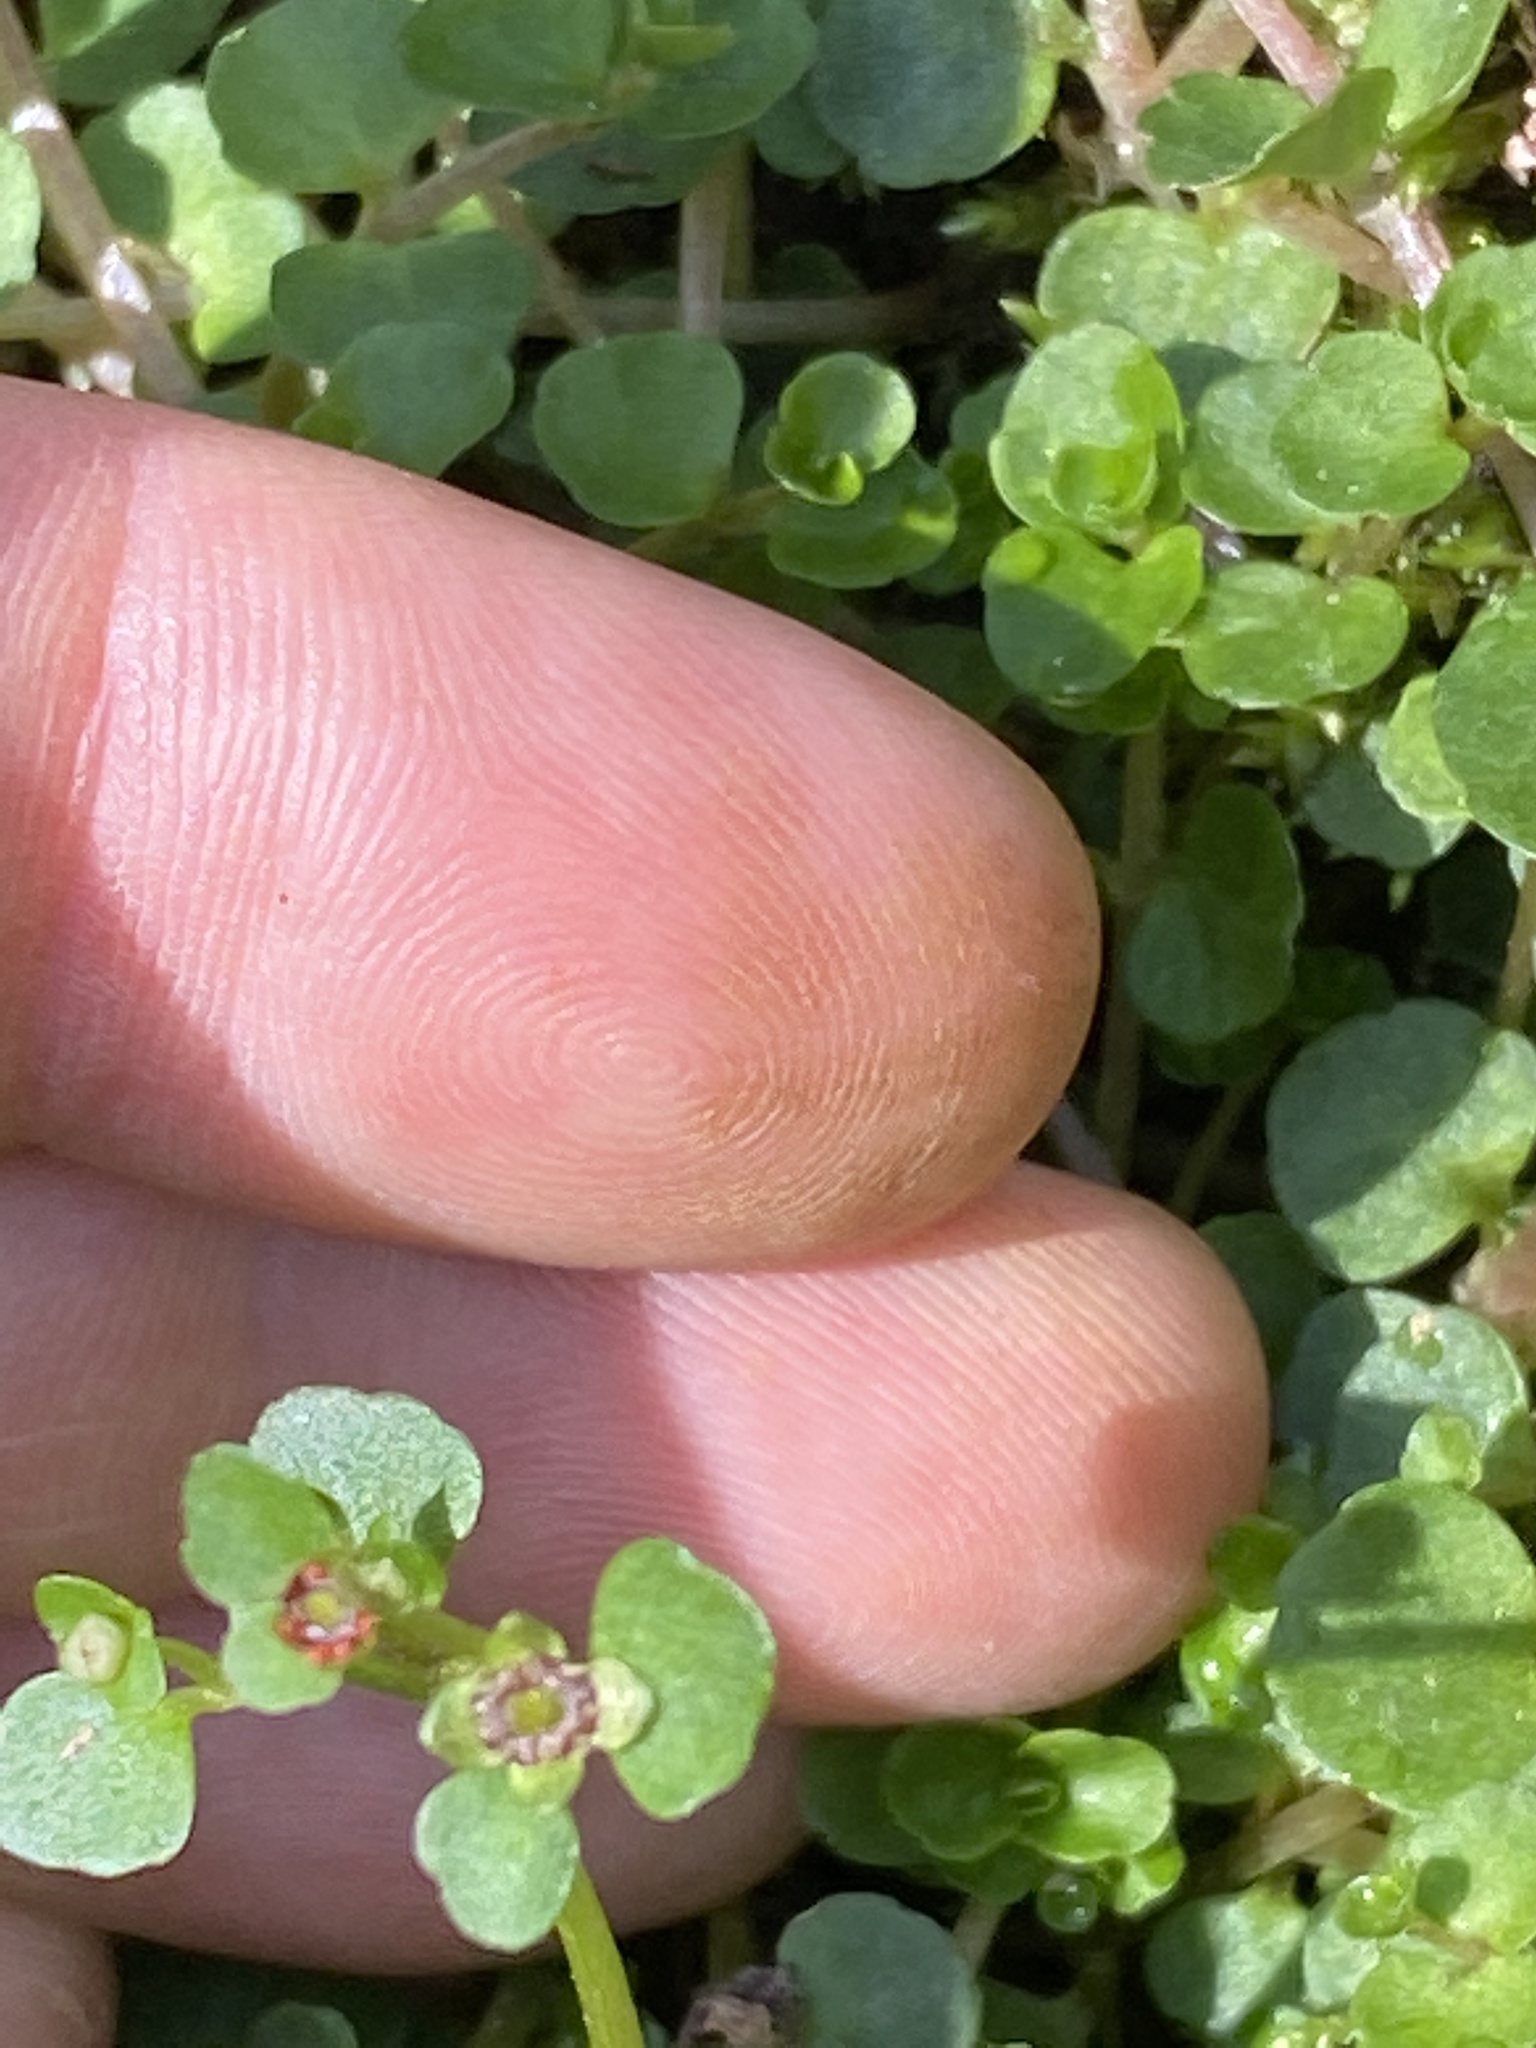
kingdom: Plantae
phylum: Tracheophyta
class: Magnoliopsida
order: Saxifragales
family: Saxifragaceae
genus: Chrysosplenium
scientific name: Chrysosplenium americanum
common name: American golden-saxifrage
